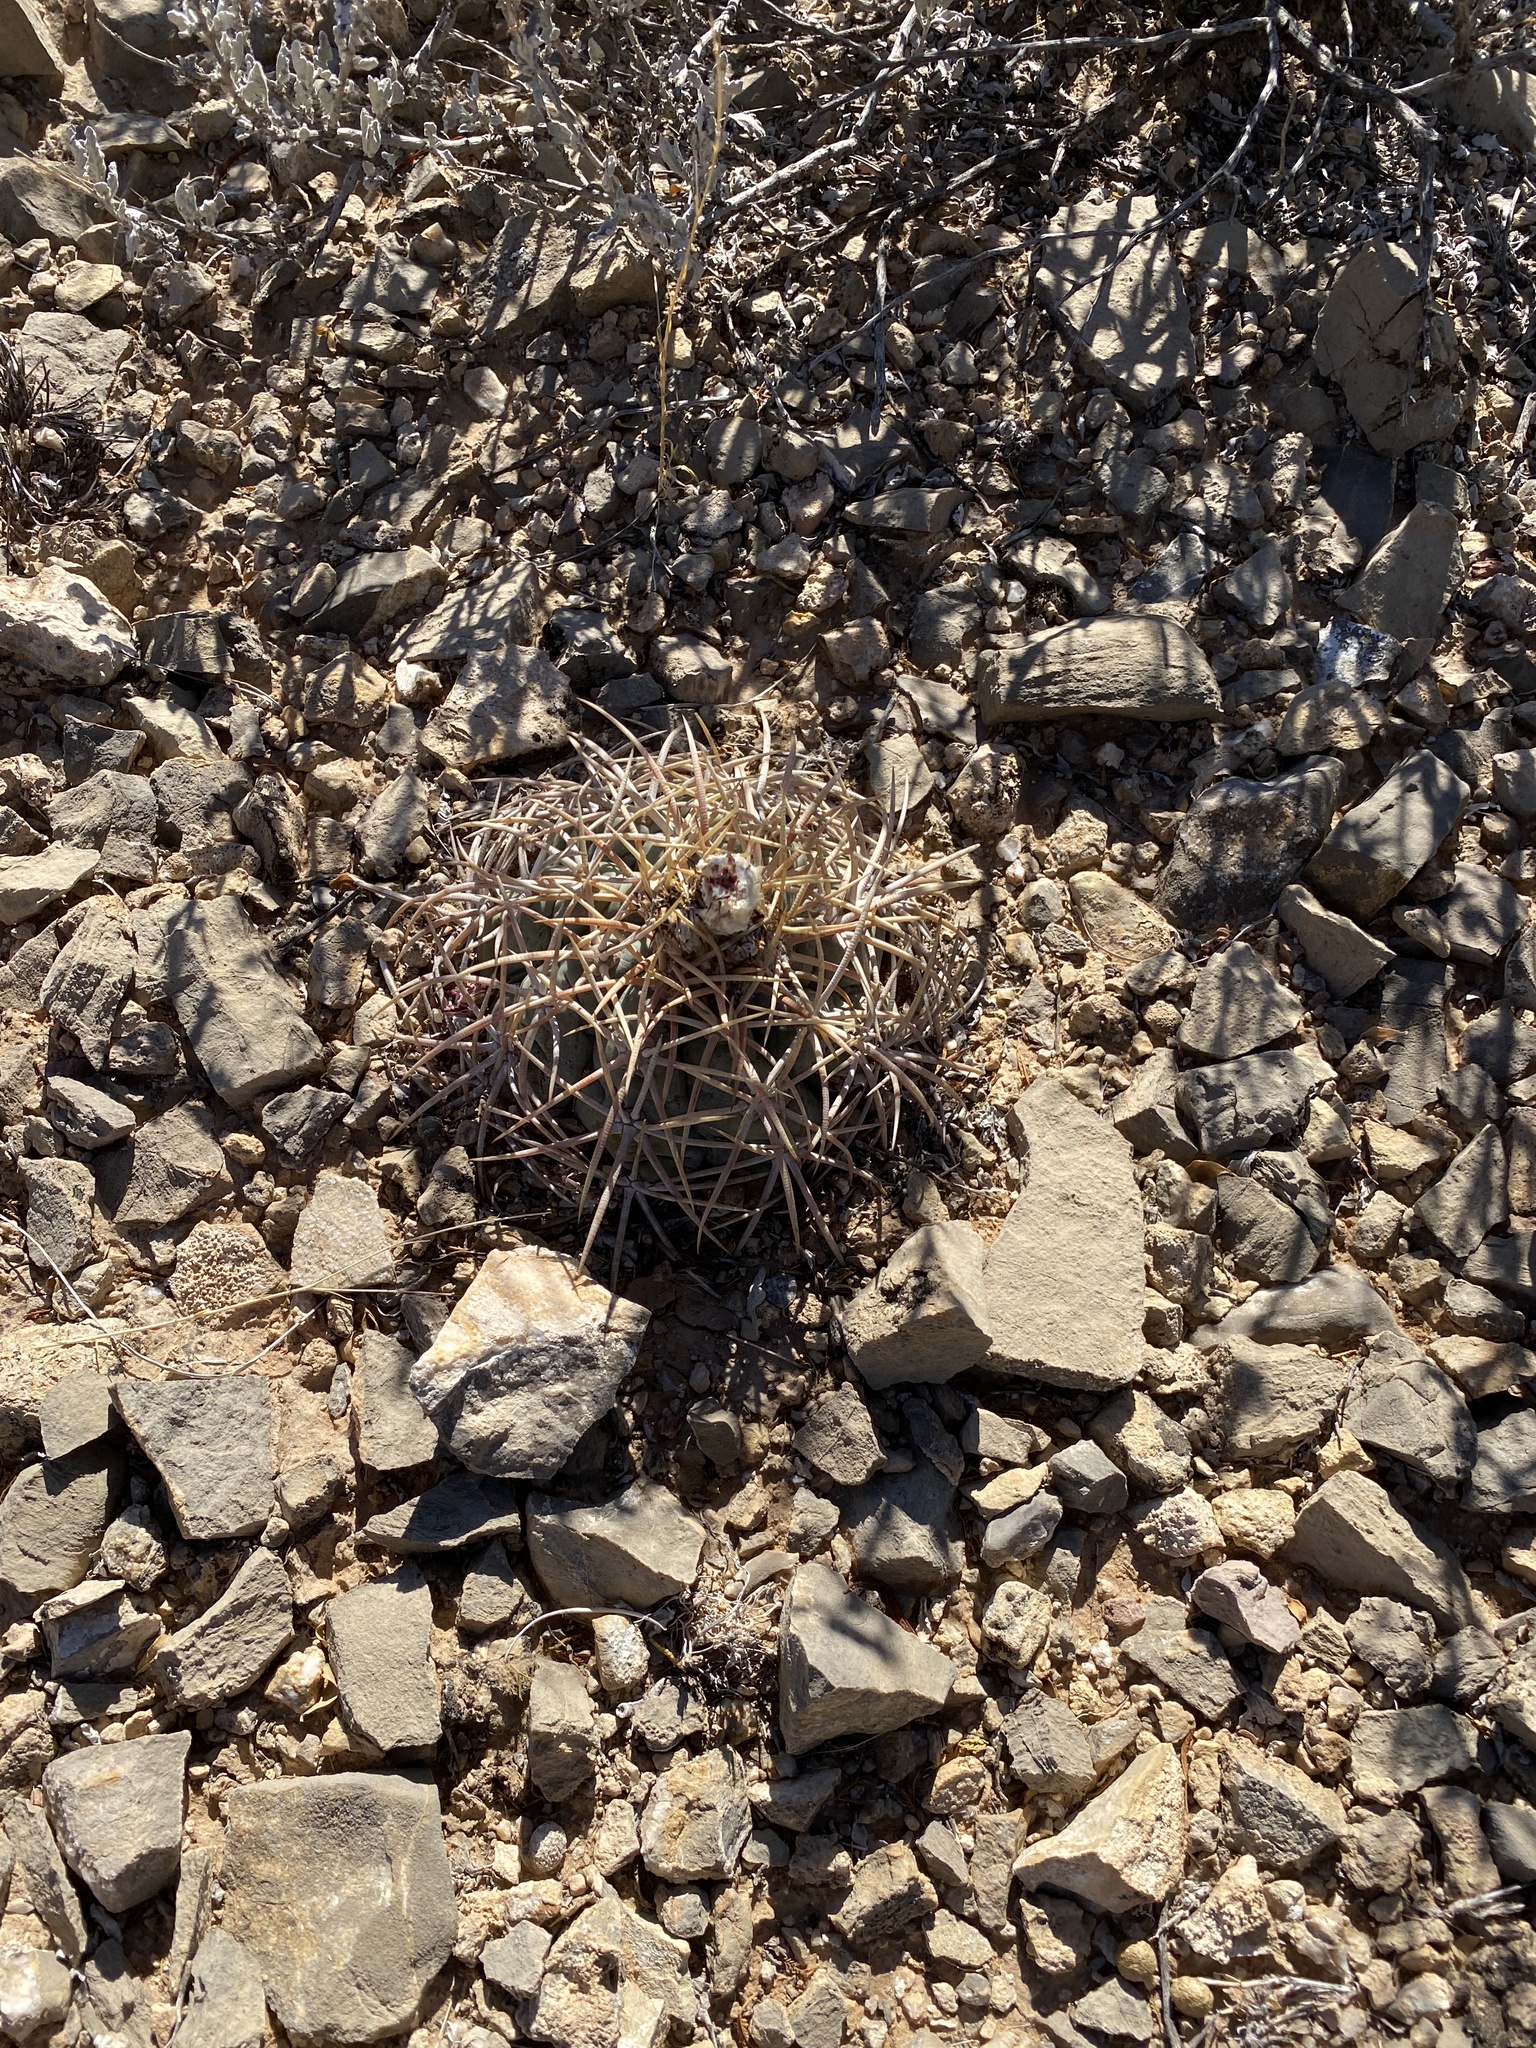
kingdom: Plantae
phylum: Tracheophyta
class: Magnoliopsida
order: Caryophyllales
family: Cactaceae
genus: Echinocactus
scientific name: Echinocactus horizonthalonius
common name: Devilshead
